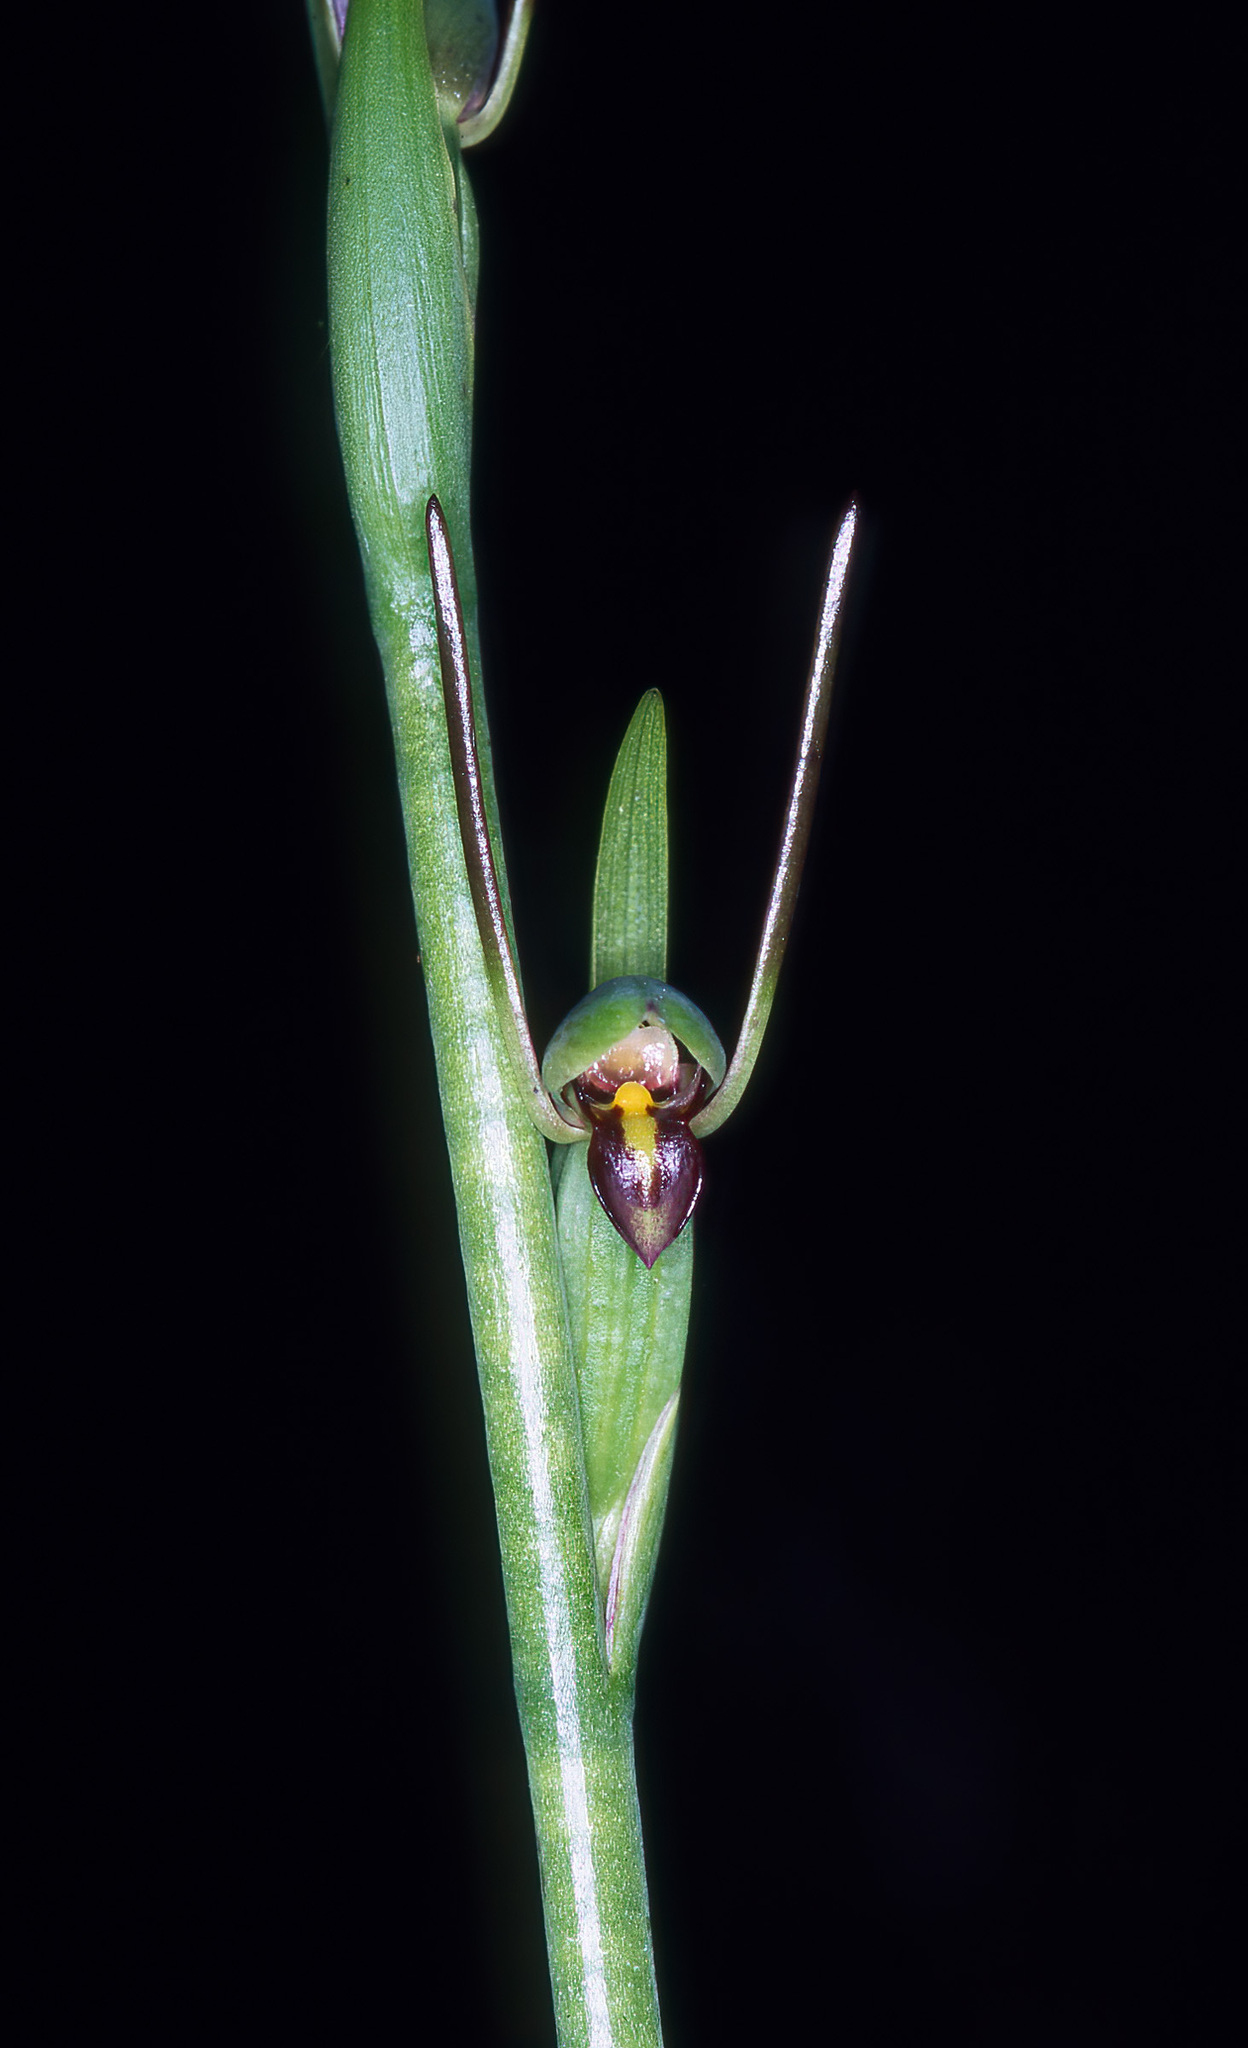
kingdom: Plantae
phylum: Tracheophyta
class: Liliopsida
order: Asparagales
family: Orchidaceae
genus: Orthoceras
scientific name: Orthoceras novae-zeelandiae
